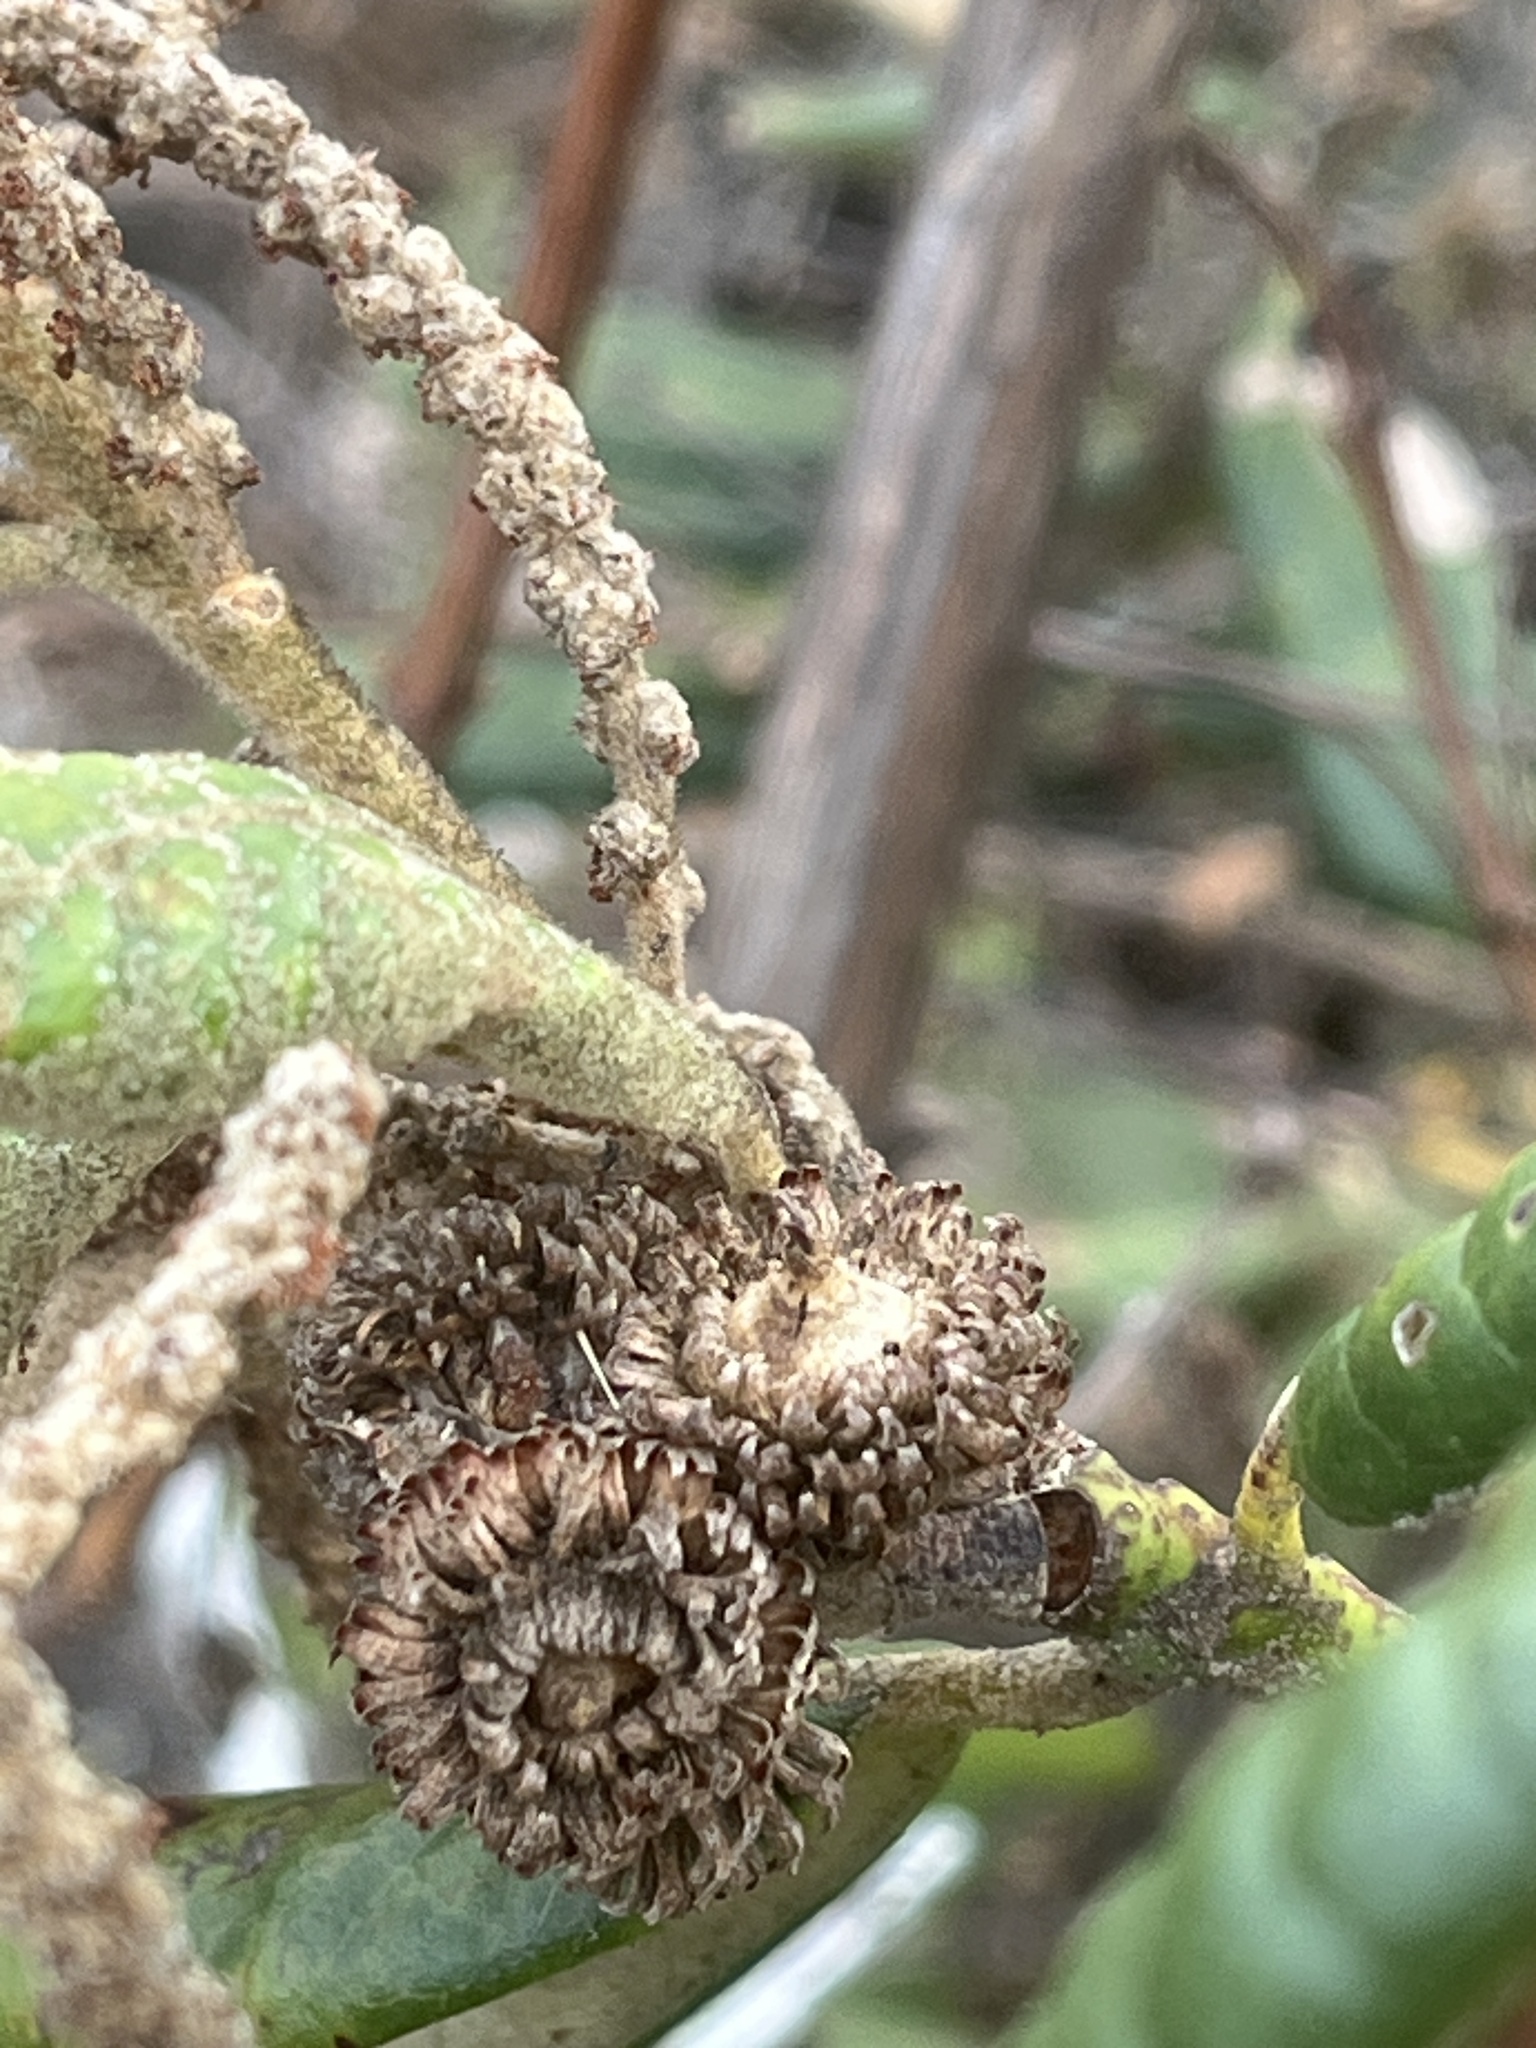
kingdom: Plantae
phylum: Tracheophyta
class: Magnoliopsida
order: Fagales
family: Fagaceae
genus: Notholithocarpus
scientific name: Notholithocarpus densiflorus
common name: Tan bark oak
